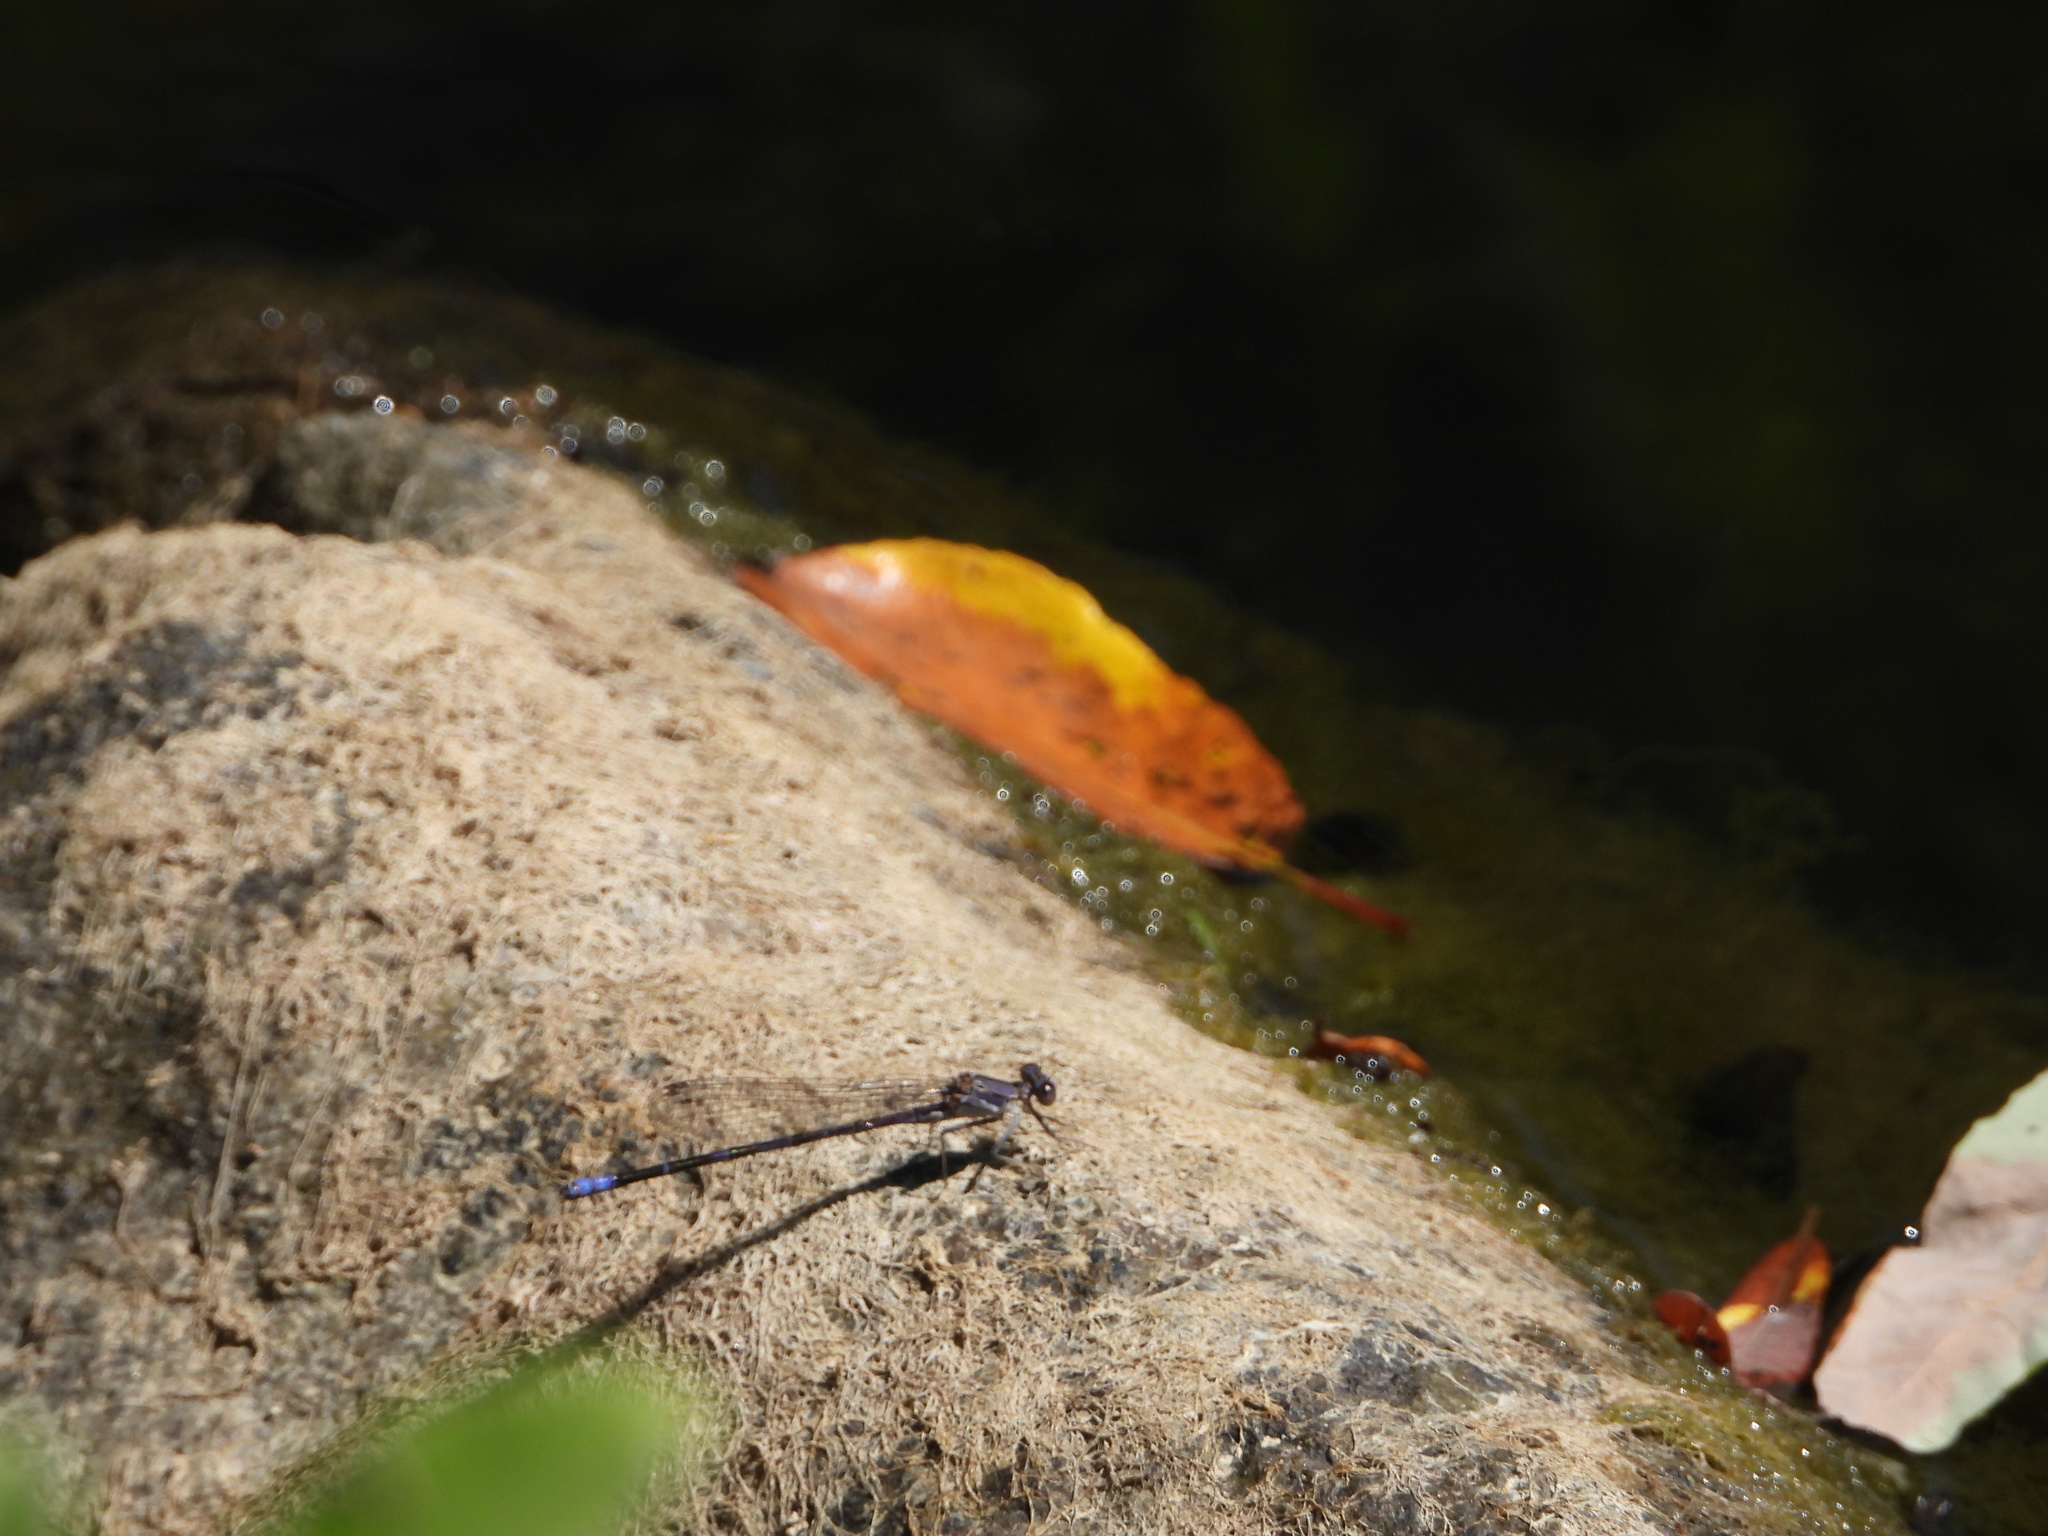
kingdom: Animalia
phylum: Arthropoda
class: Insecta
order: Odonata
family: Coenagrionidae
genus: Argia
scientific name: Argia emma
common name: Emma's dancer
